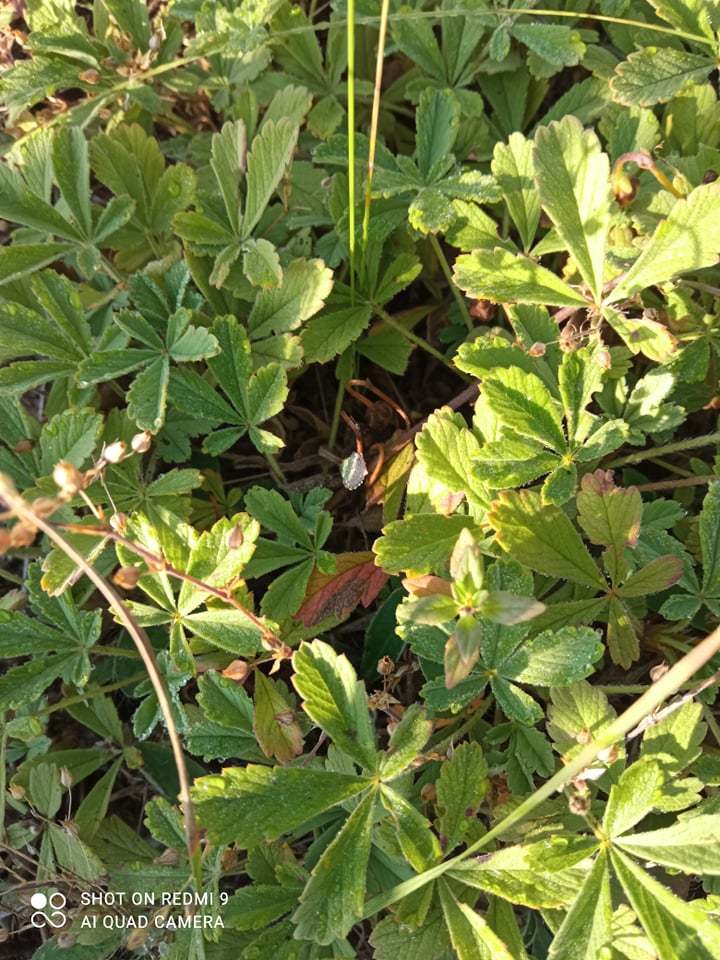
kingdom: Plantae
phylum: Tracheophyta
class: Magnoliopsida
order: Rosales
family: Rosaceae
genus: Potentilla
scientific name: Potentilla incana
